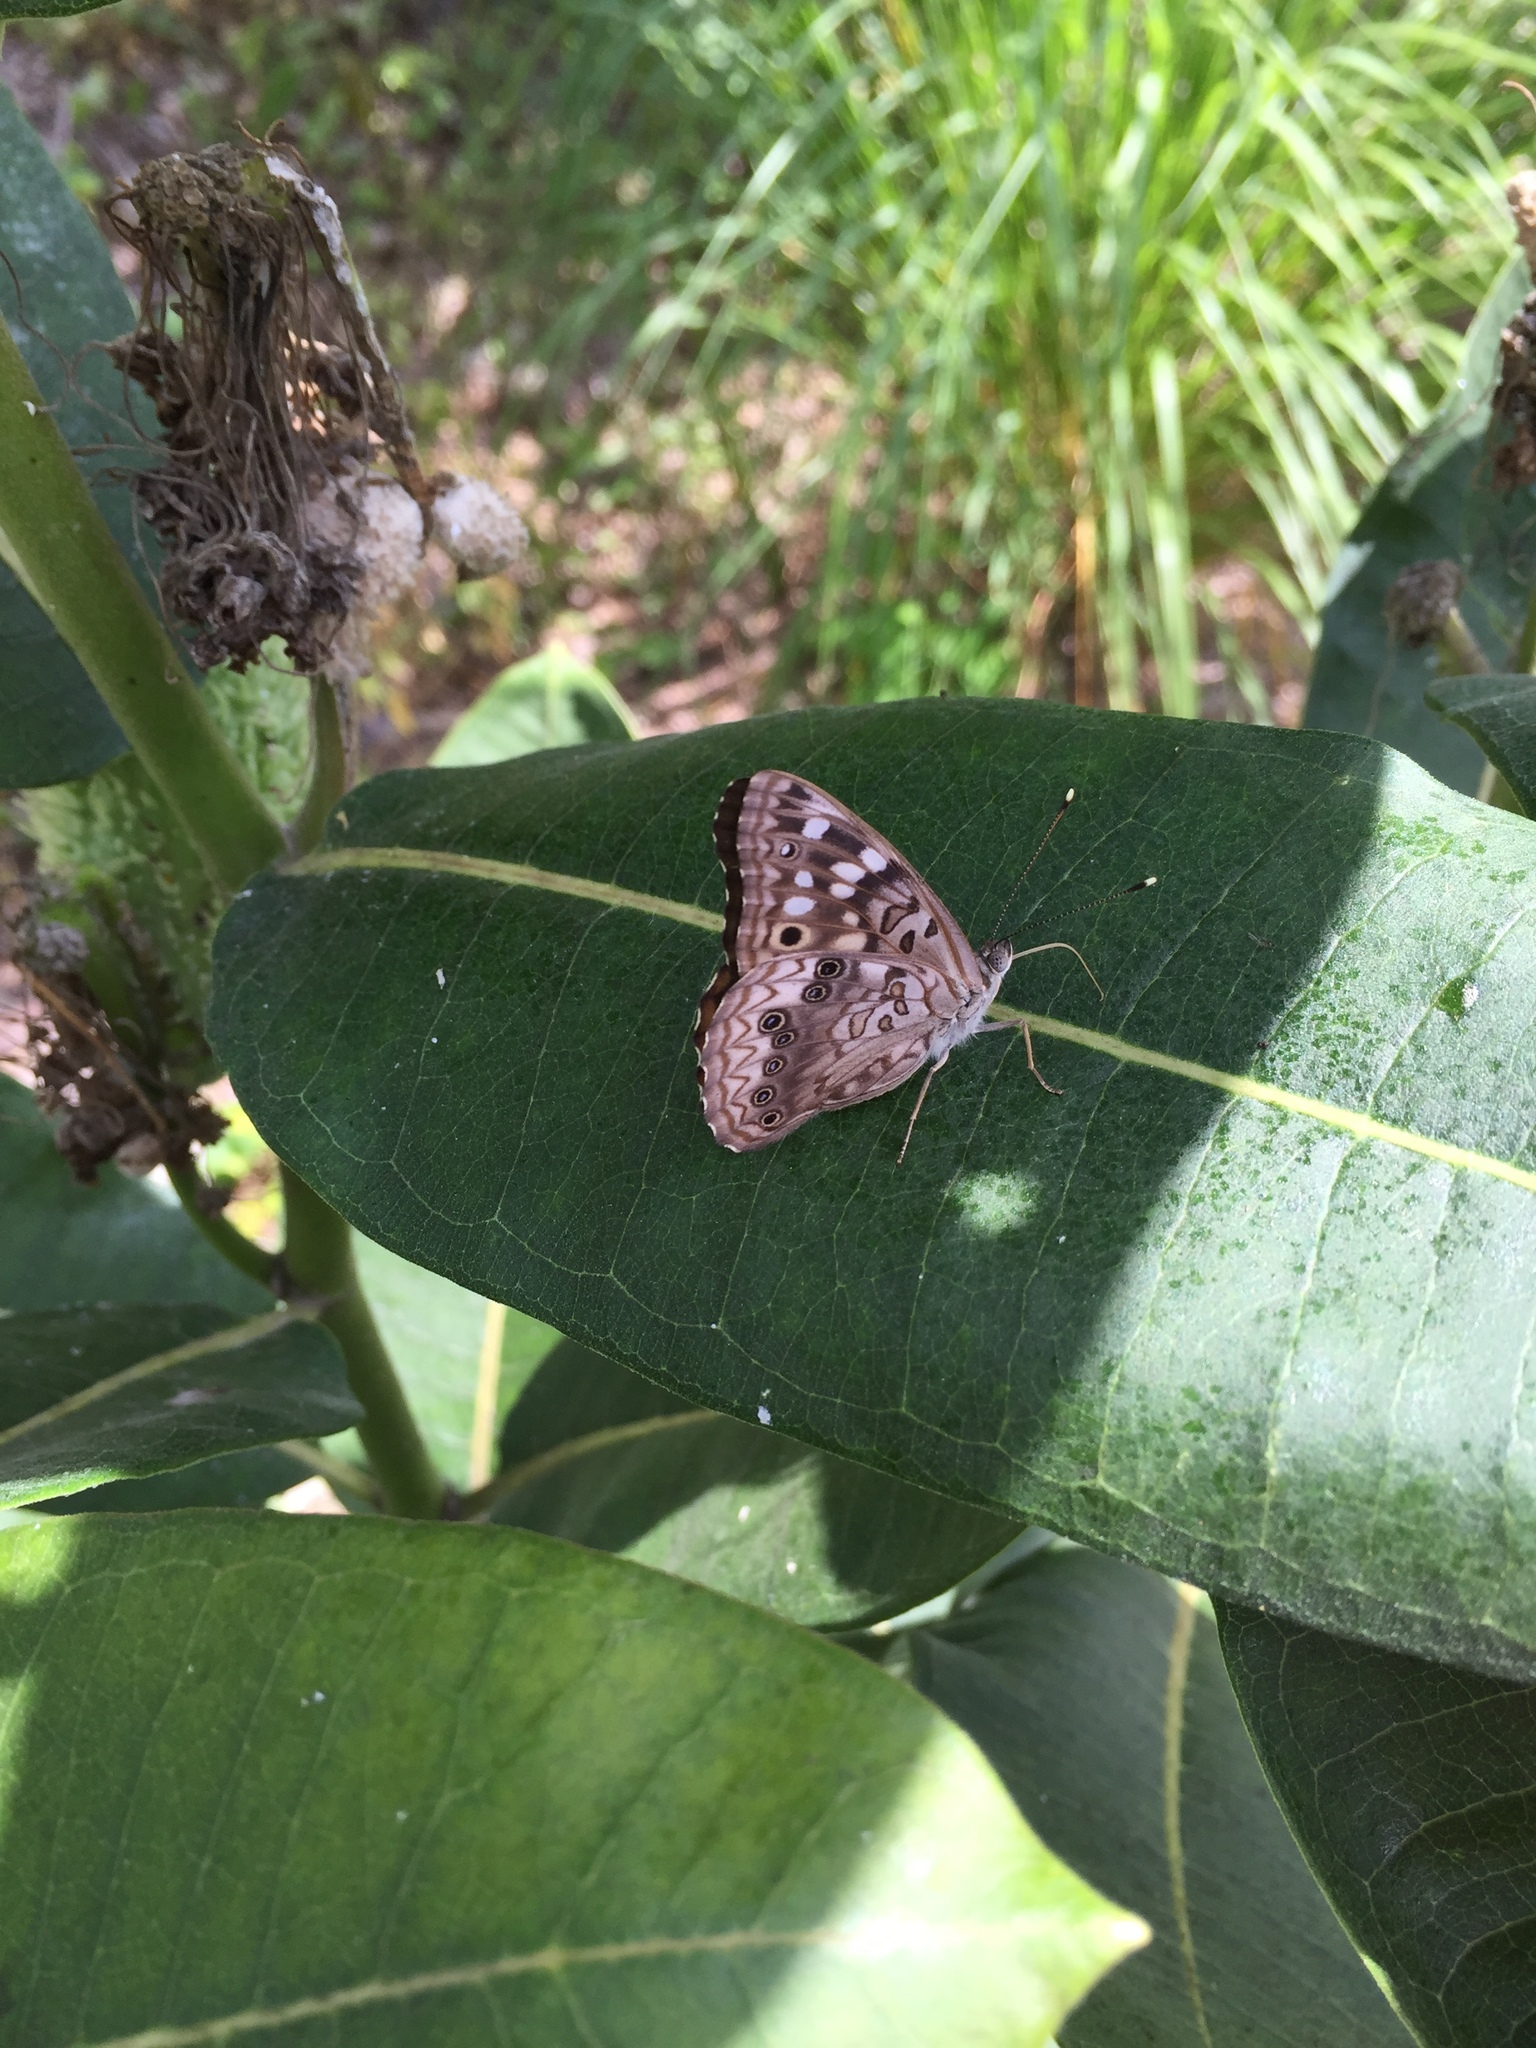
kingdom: Animalia
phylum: Arthropoda
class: Insecta
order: Lepidoptera
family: Nymphalidae
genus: Asterocampa
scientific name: Asterocampa celtis
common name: Hackberry emperor
